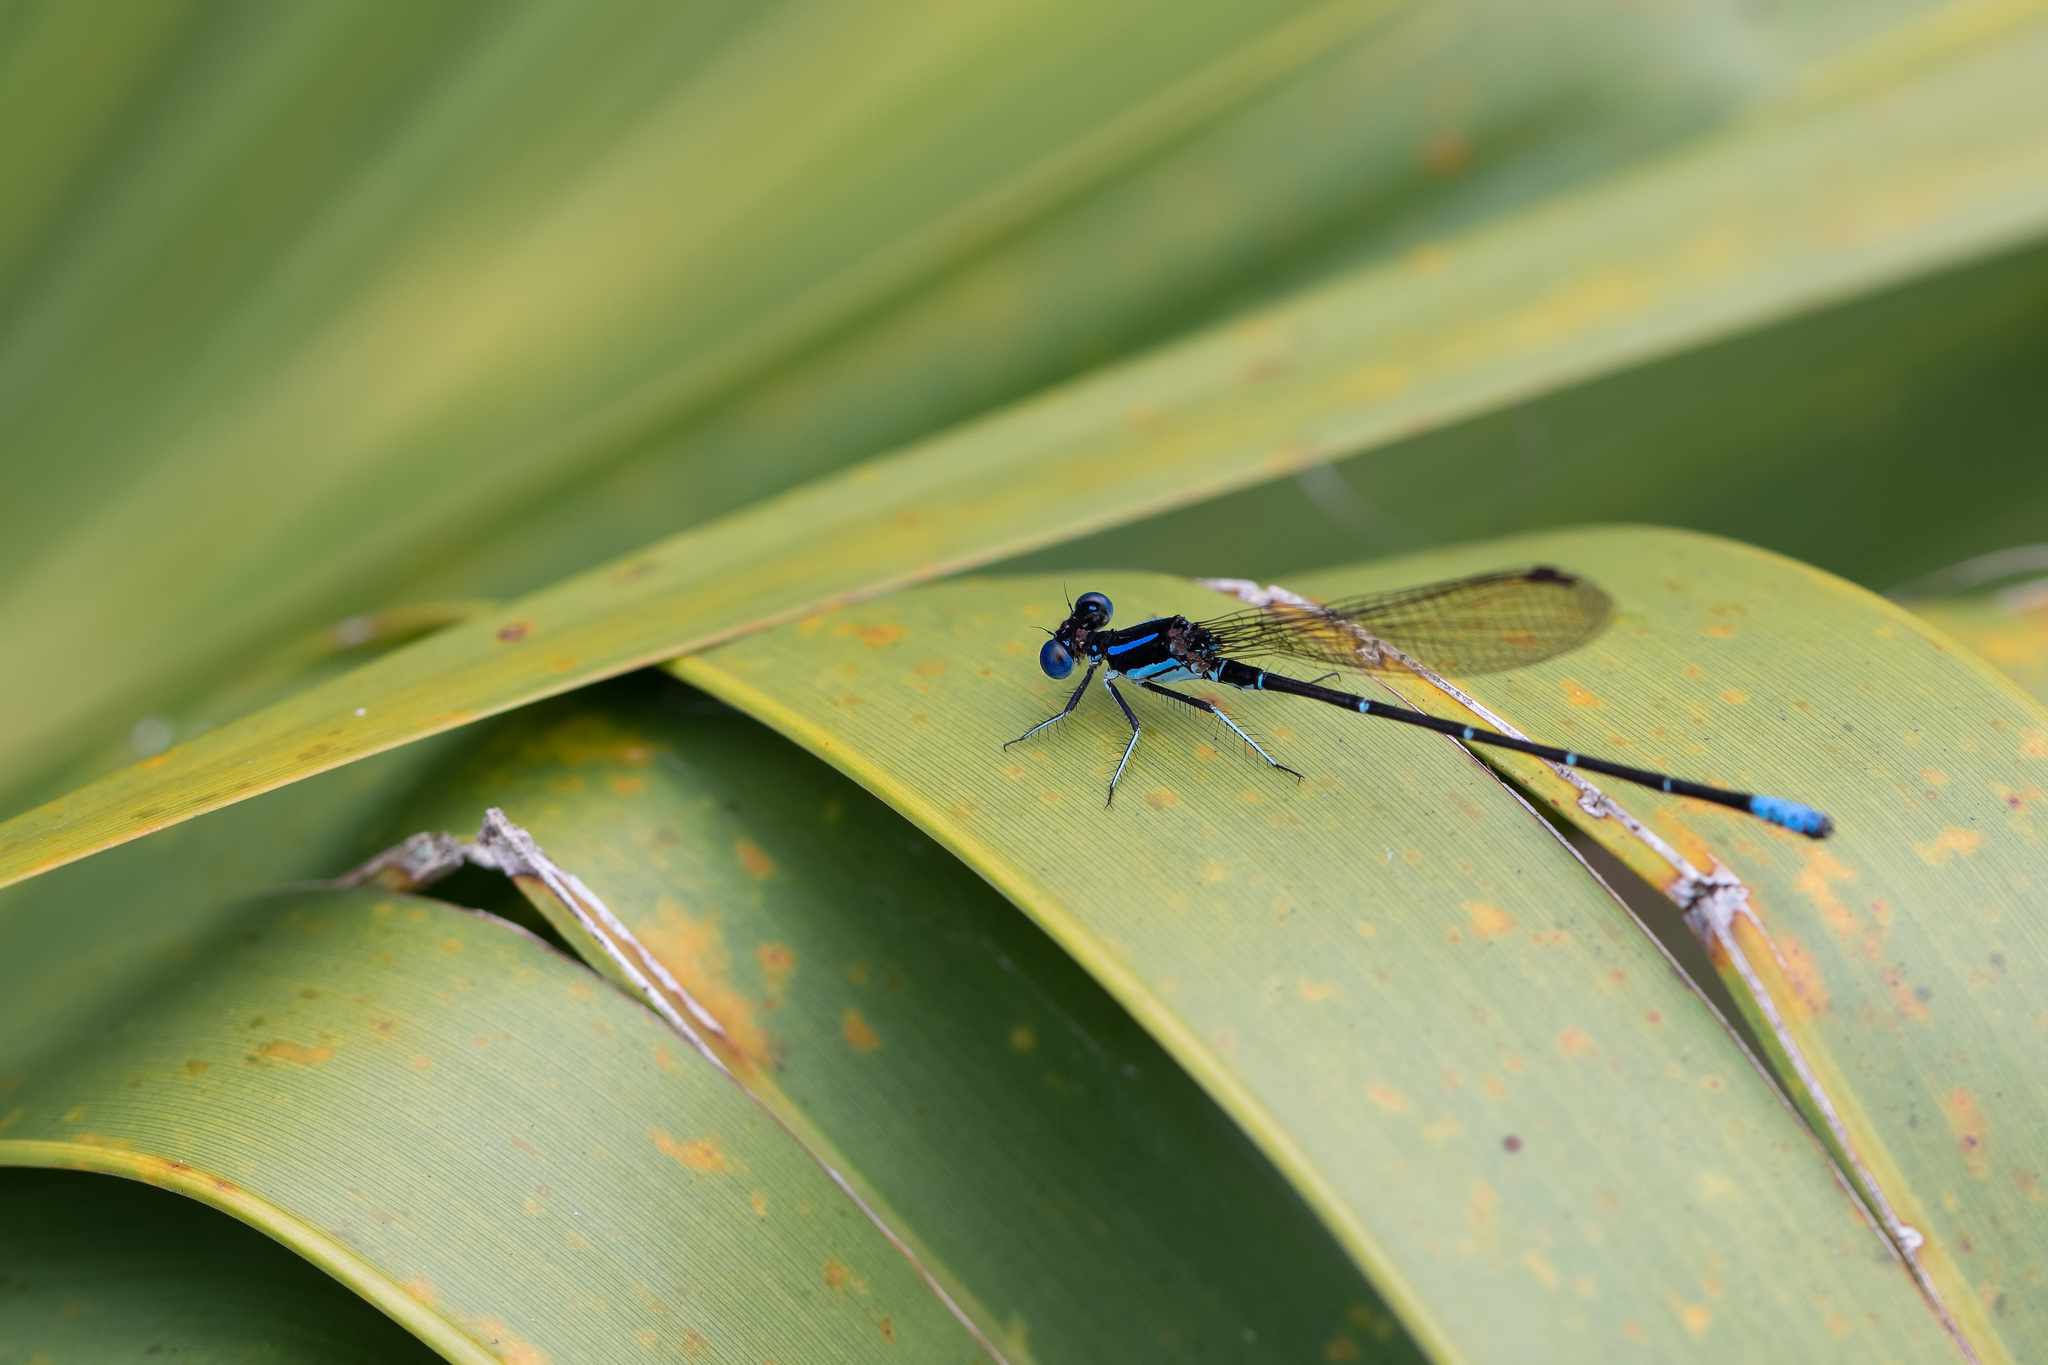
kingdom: Animalia
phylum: Arthropoda
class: Insecta
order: Odonata
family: Coenagrionidae
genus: Argia
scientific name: Argia sedula
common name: Blue-ringed dancer
